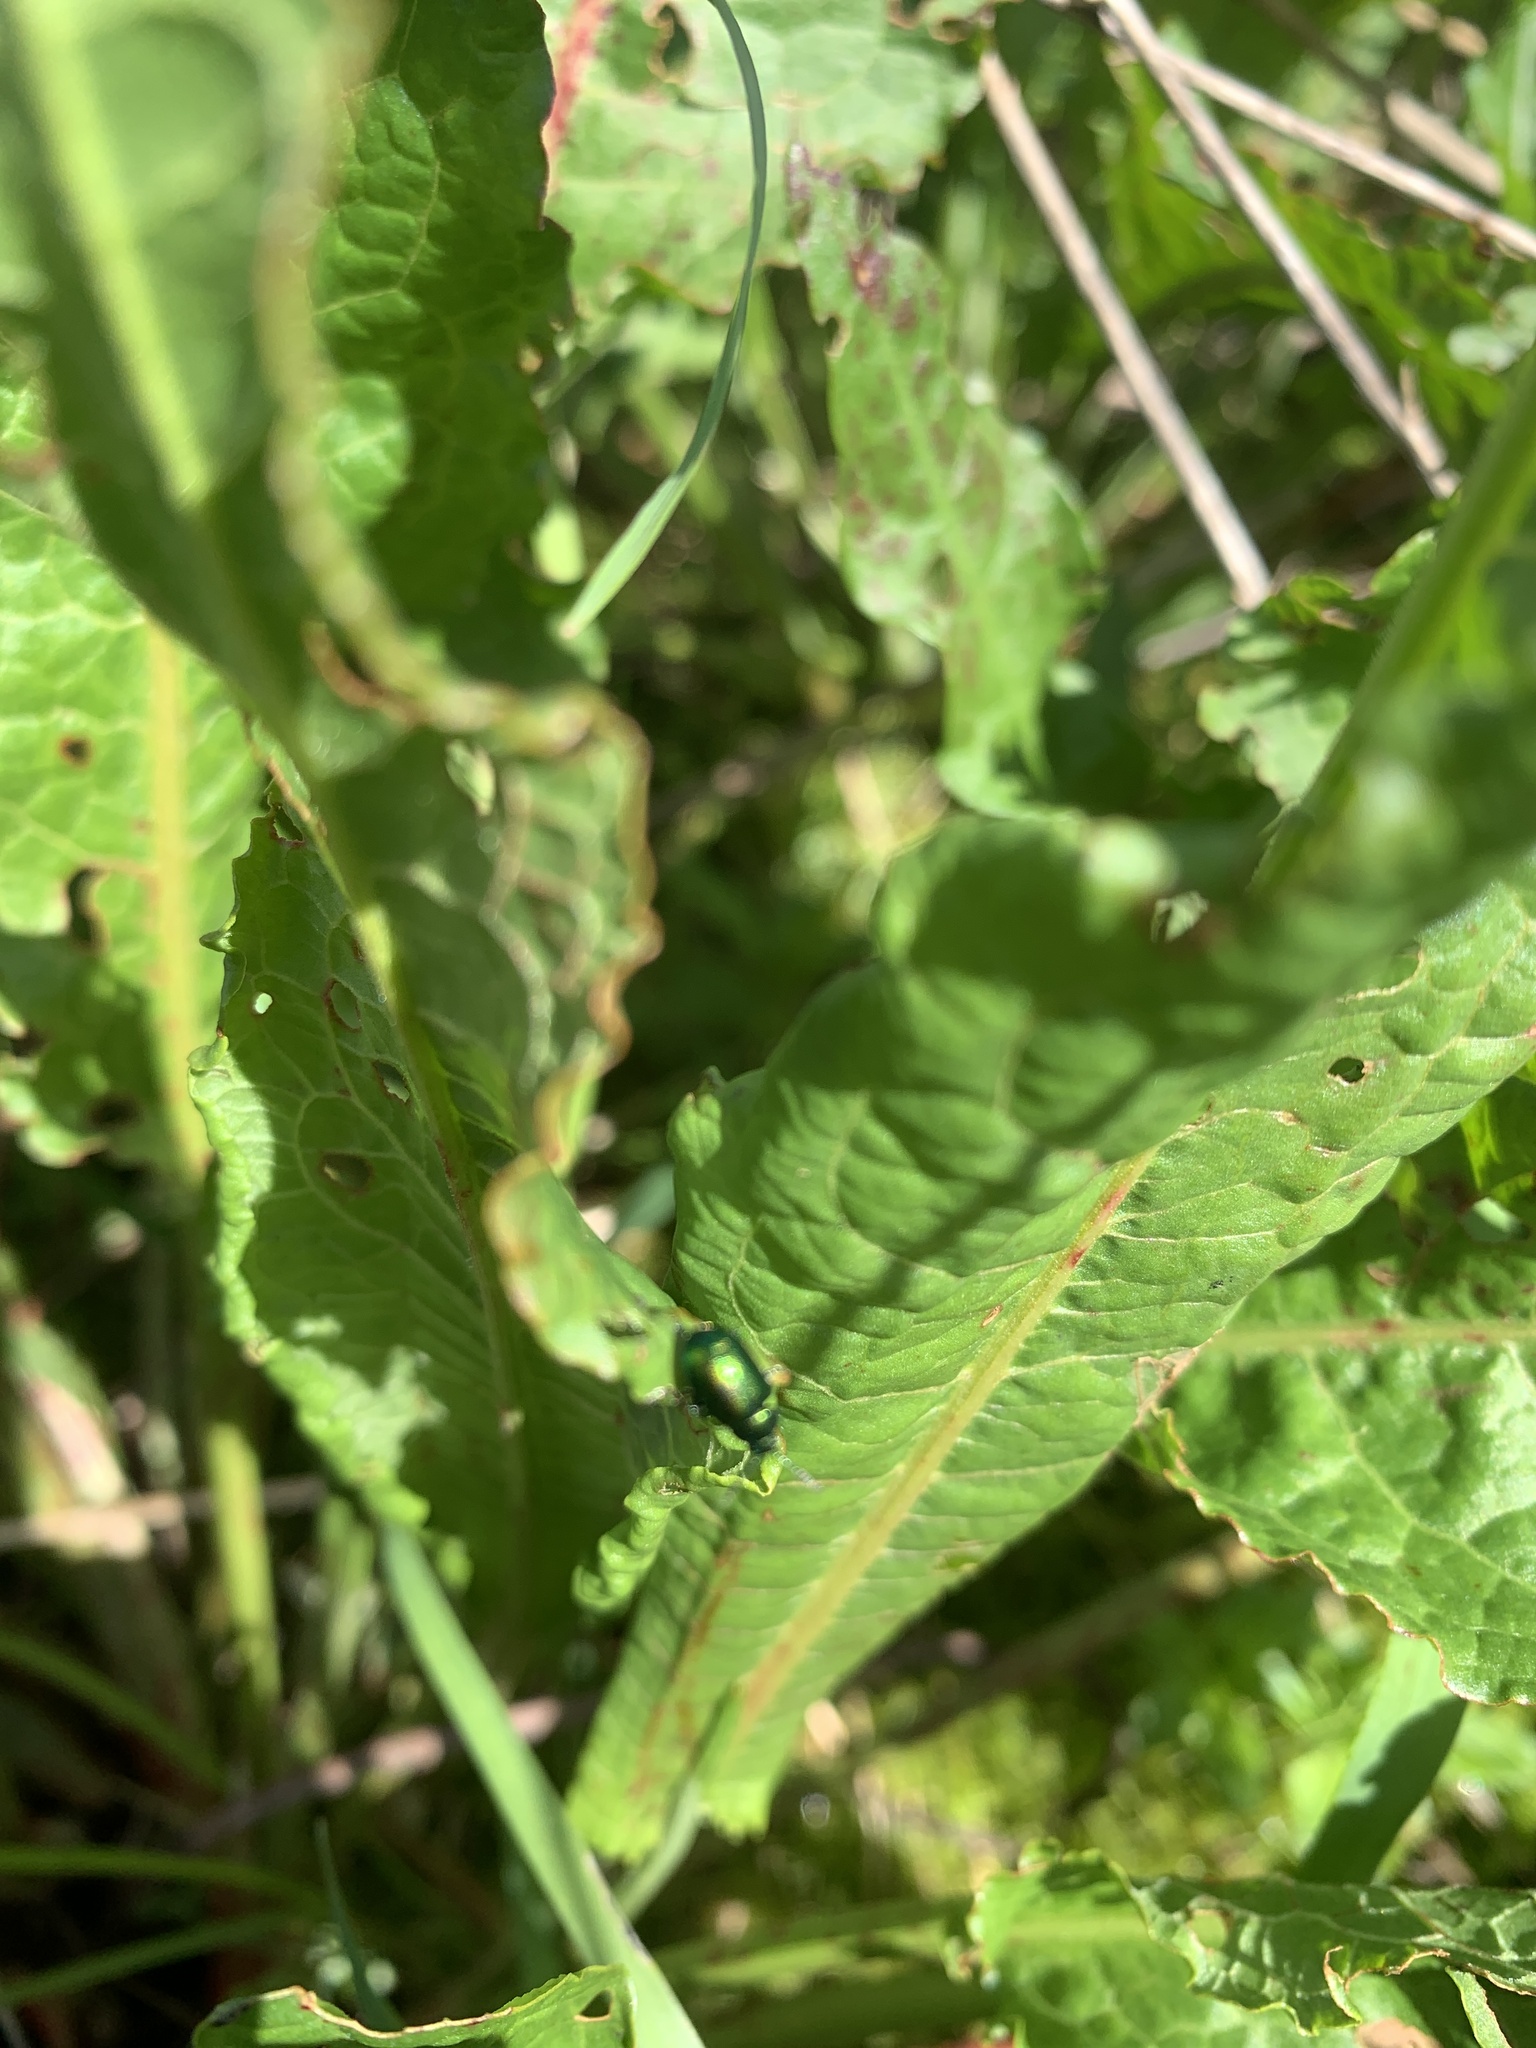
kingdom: Animalia
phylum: Arthropoda
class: Insecta
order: Coleoptera
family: Chrysomelidae
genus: Gastrophysa
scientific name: Gastrophysa viridula
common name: Green dock beetle
